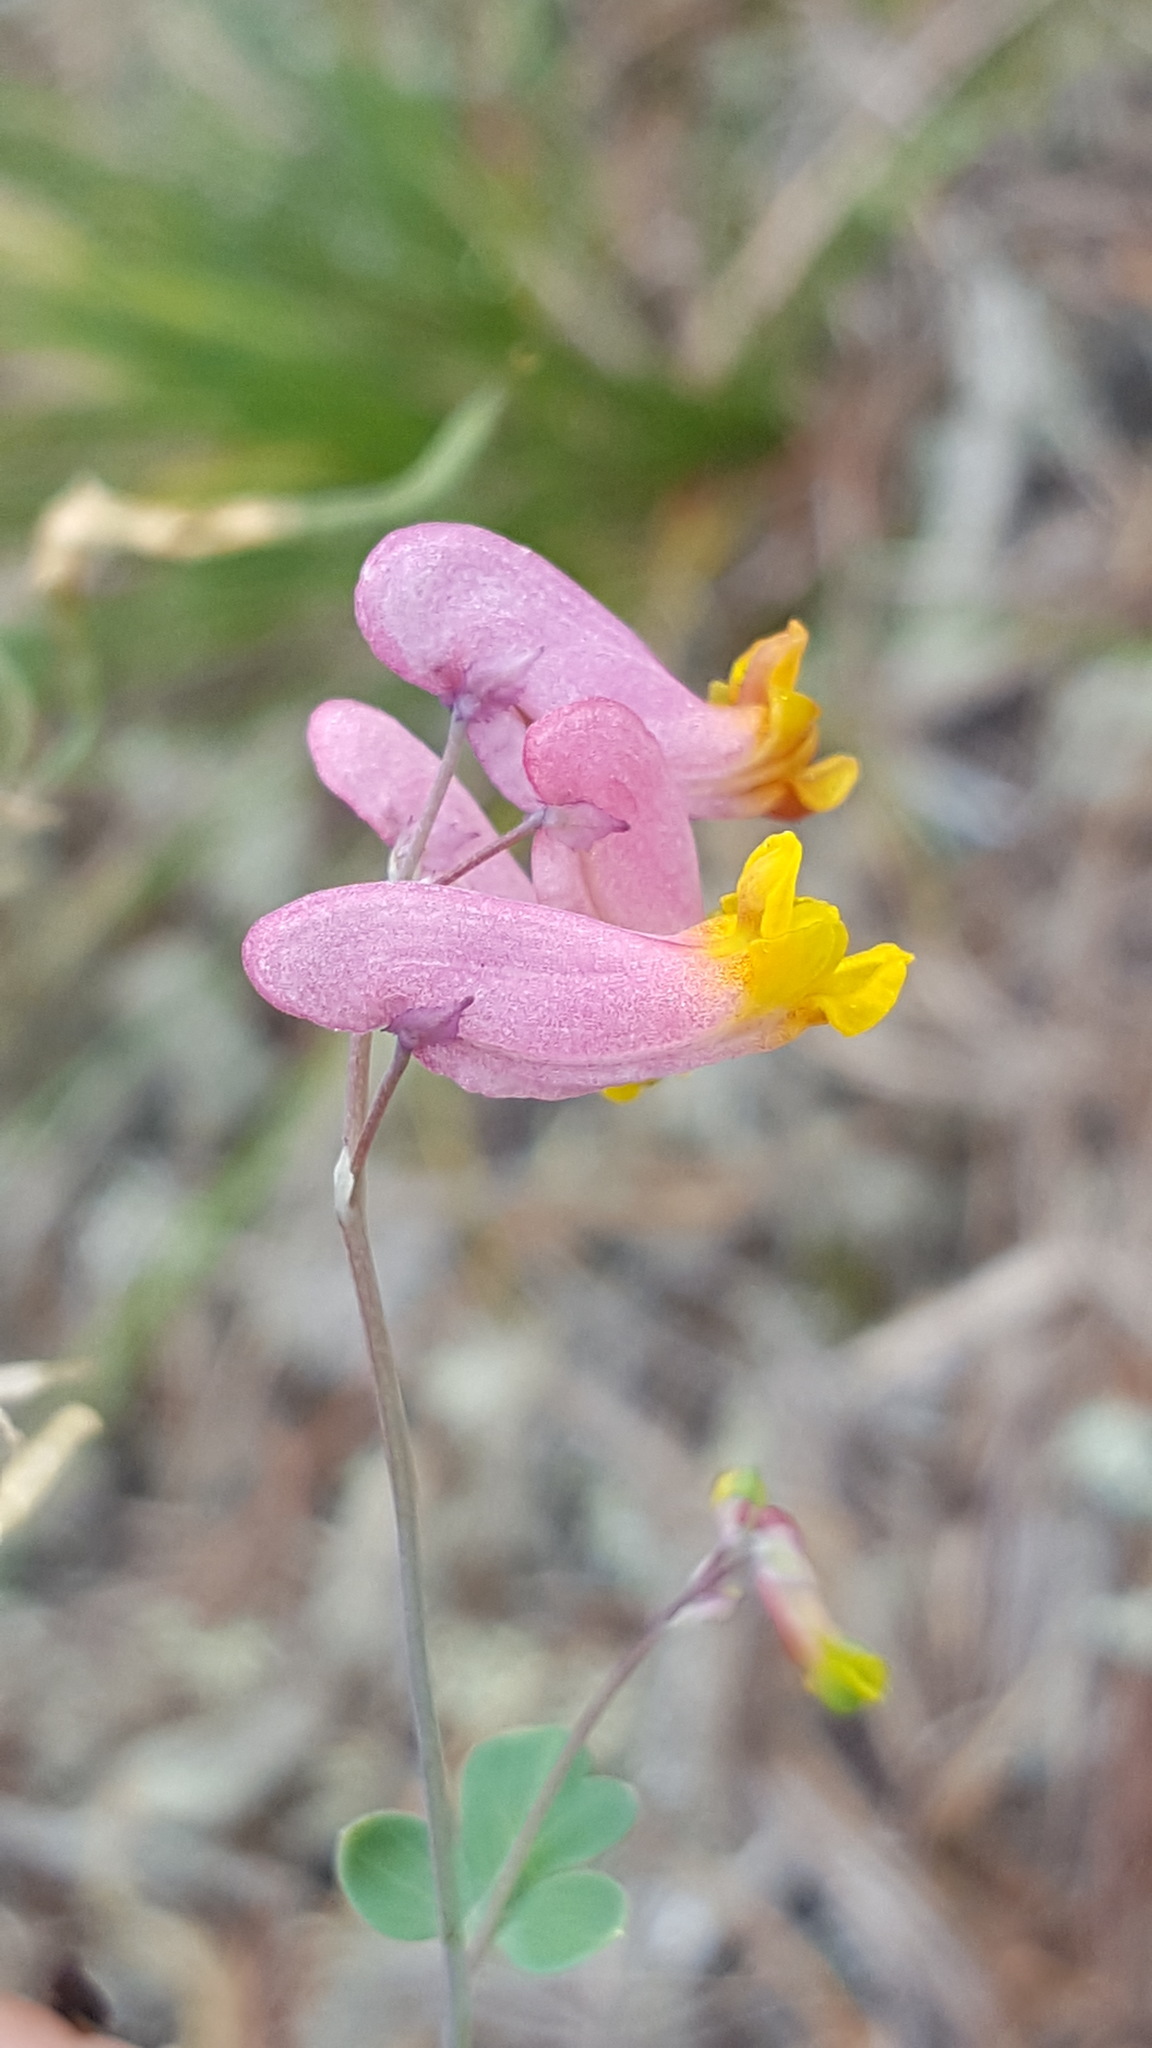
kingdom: Plantae
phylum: Tracheophyta
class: Magnoliopsida
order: Ranunculales
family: Papaveraceae
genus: Capnoides
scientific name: Capnoides sempervirens
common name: Rock harlequin
